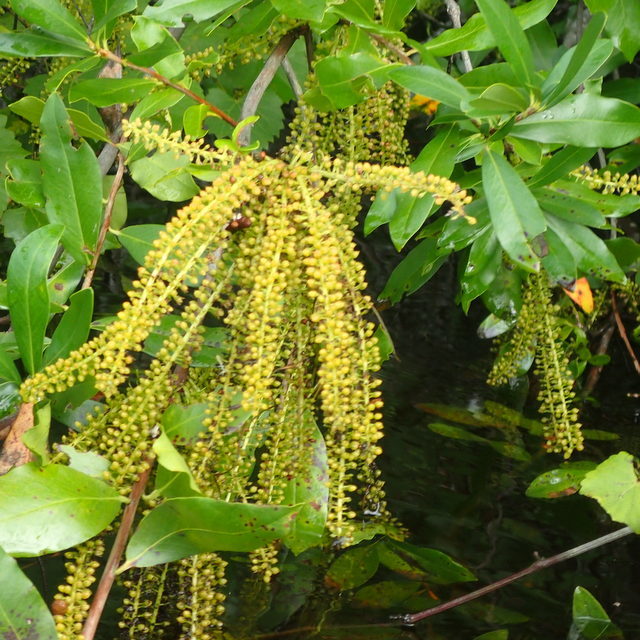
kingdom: Plantae
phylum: Tracheophyta
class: Magnoliopsida
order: Ericales
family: Cyrillaceae
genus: Cyrilla
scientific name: Cyrilla racemiflora
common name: Black titi
